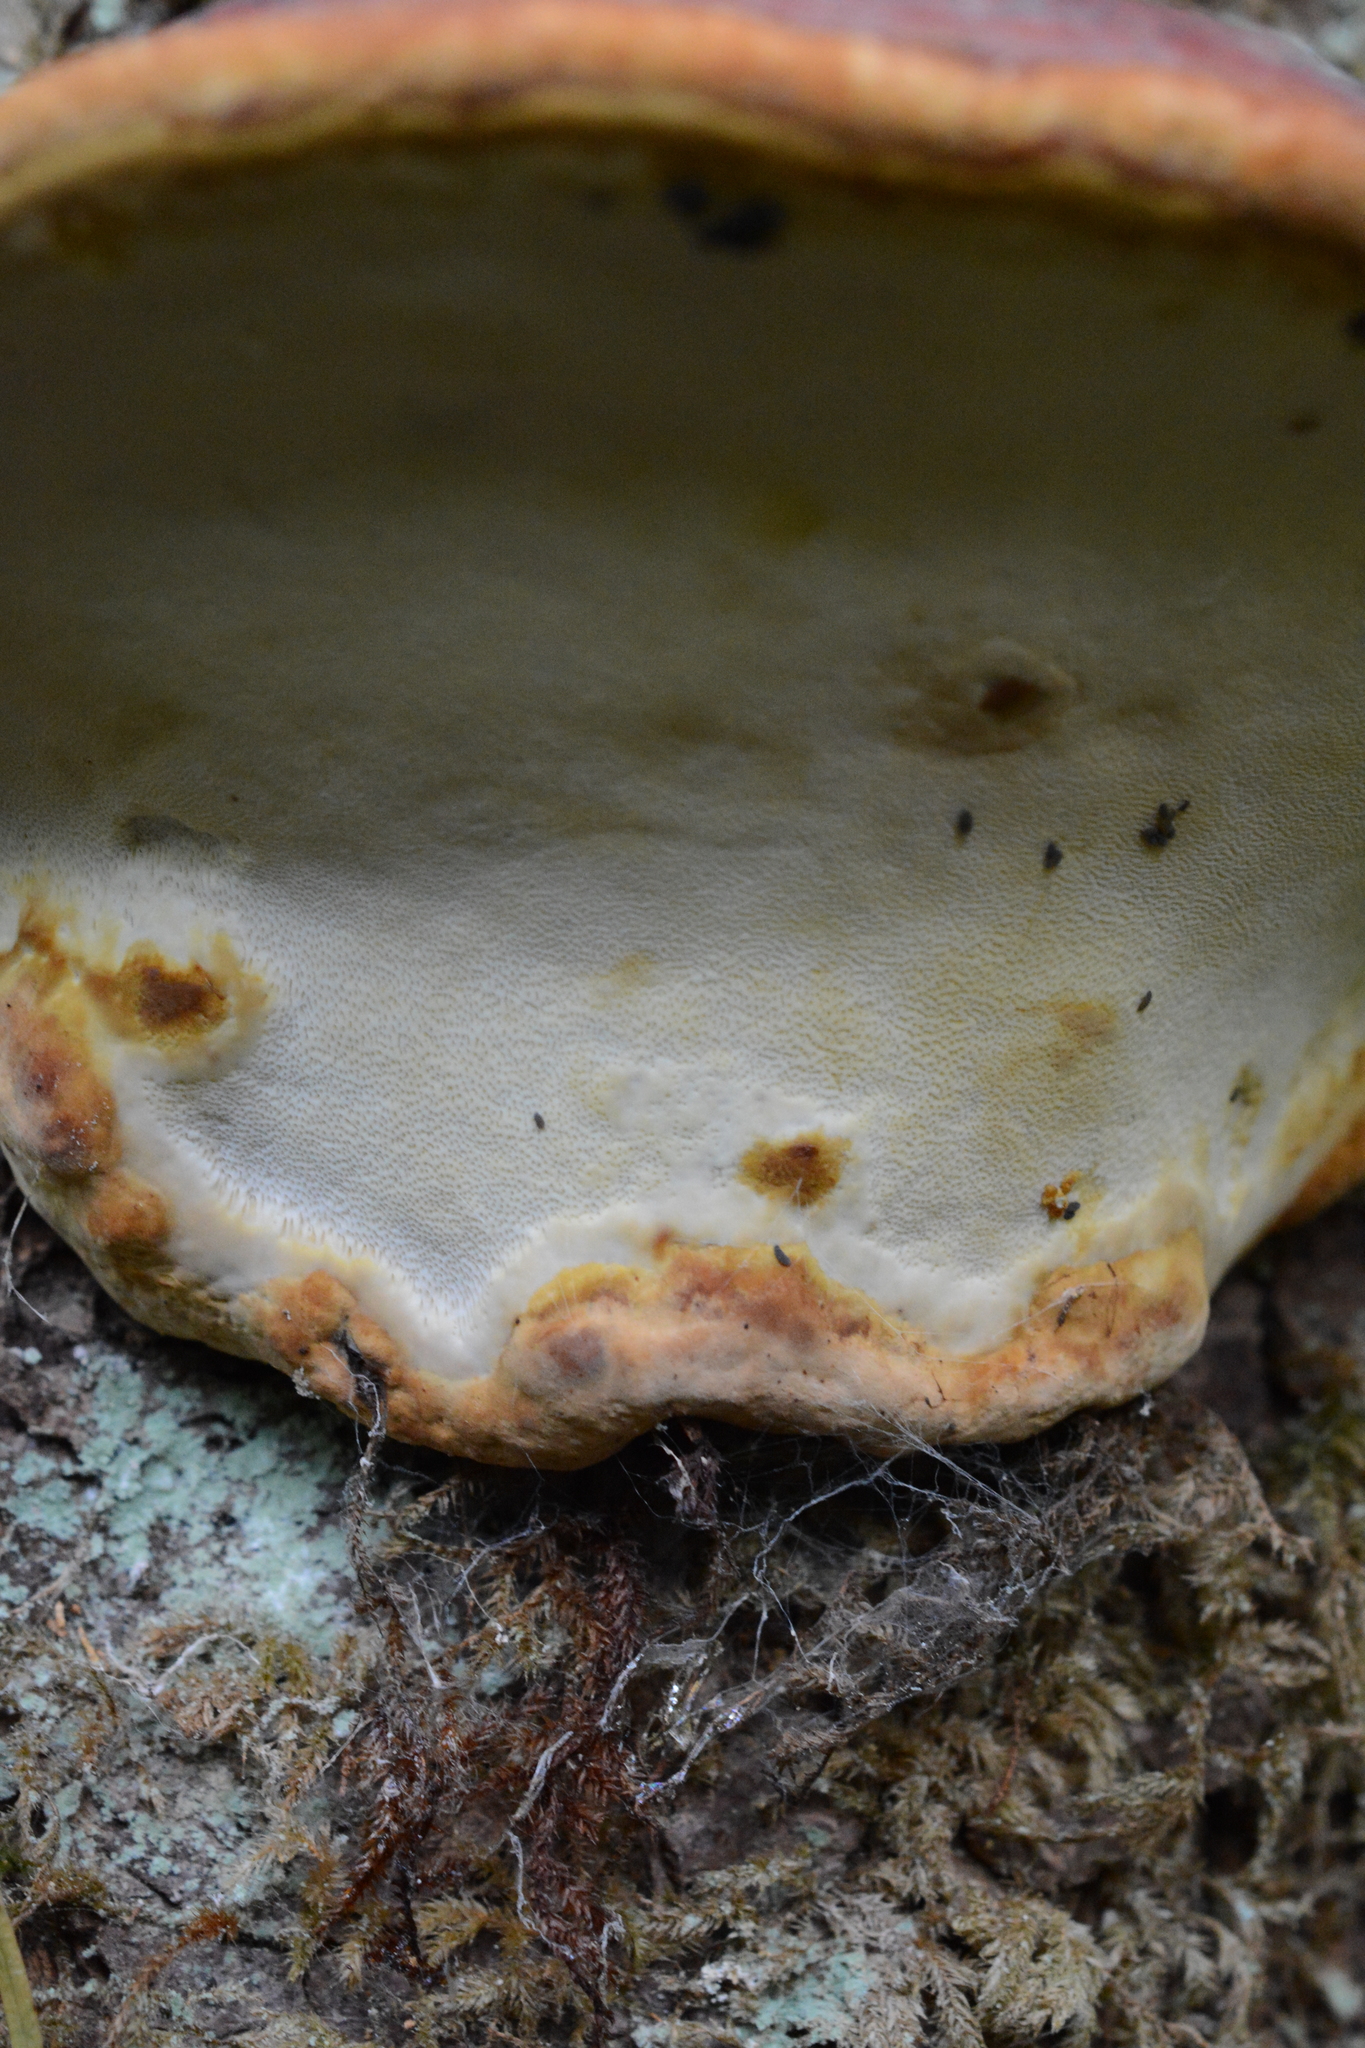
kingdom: Fungi
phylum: Basidiomycota
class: Agaricomycetes
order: Polyporales
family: Fomitopsidaceae
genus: Fomitopsis
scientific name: Fomitopsis mounceae
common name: Northern red belt
